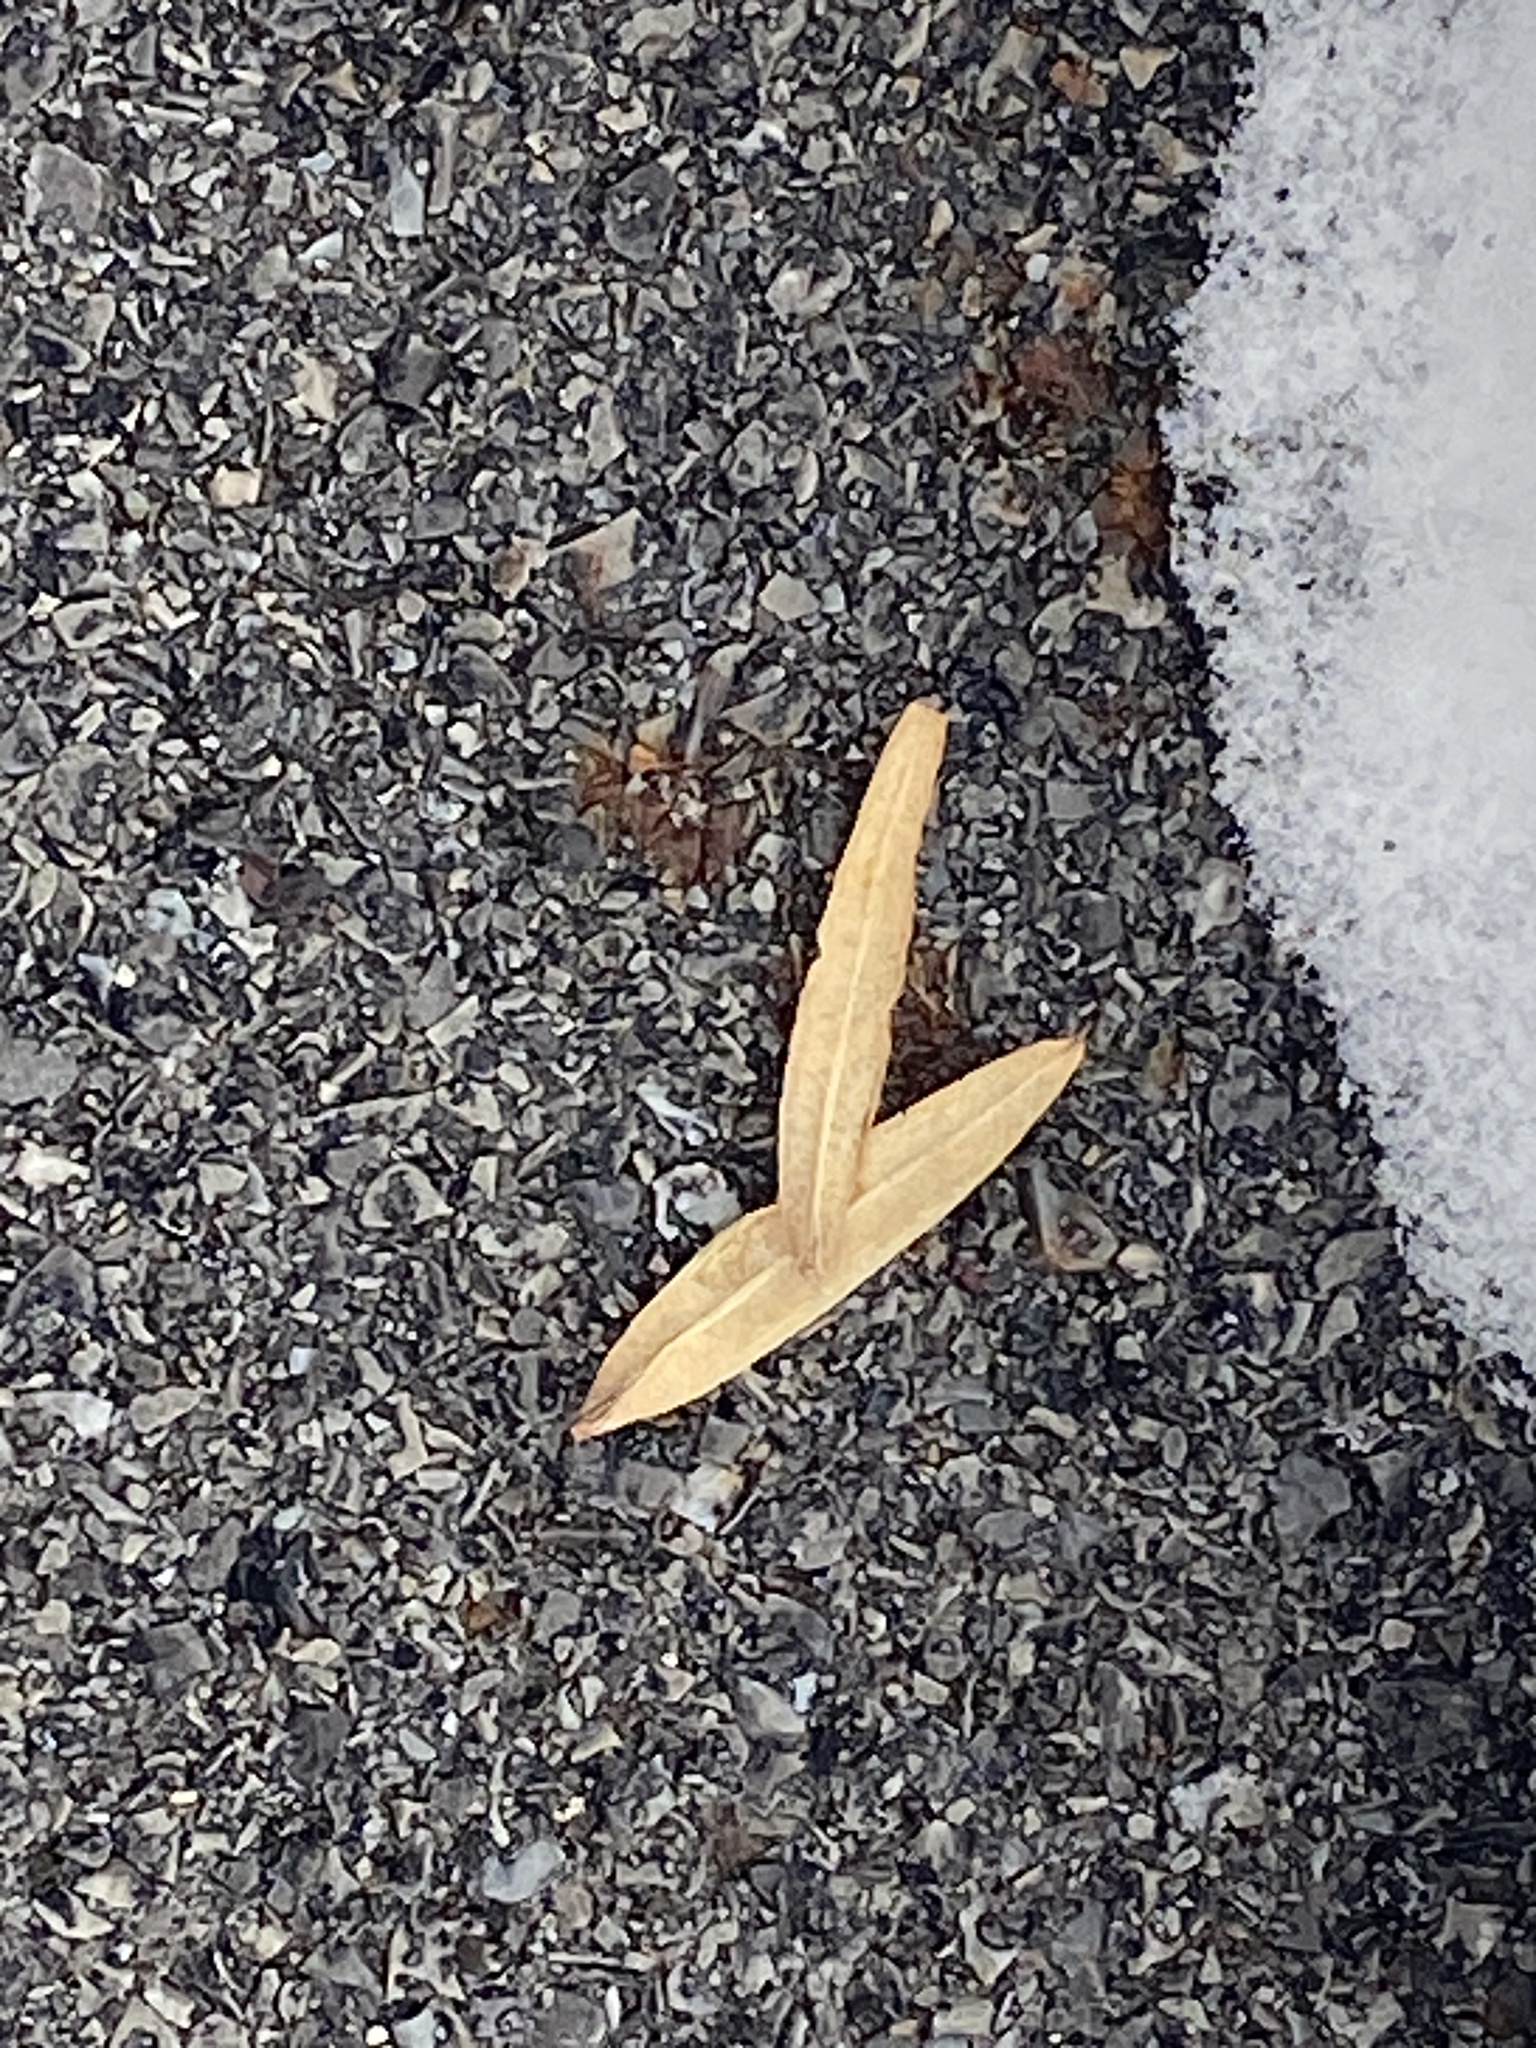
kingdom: Plantae
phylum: Tracheophyta
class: Magnoliopsida
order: Magnoliales
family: Magnoliaceae
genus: Liriodendron
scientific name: Liriodendron tulipifera
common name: Tulip tree
